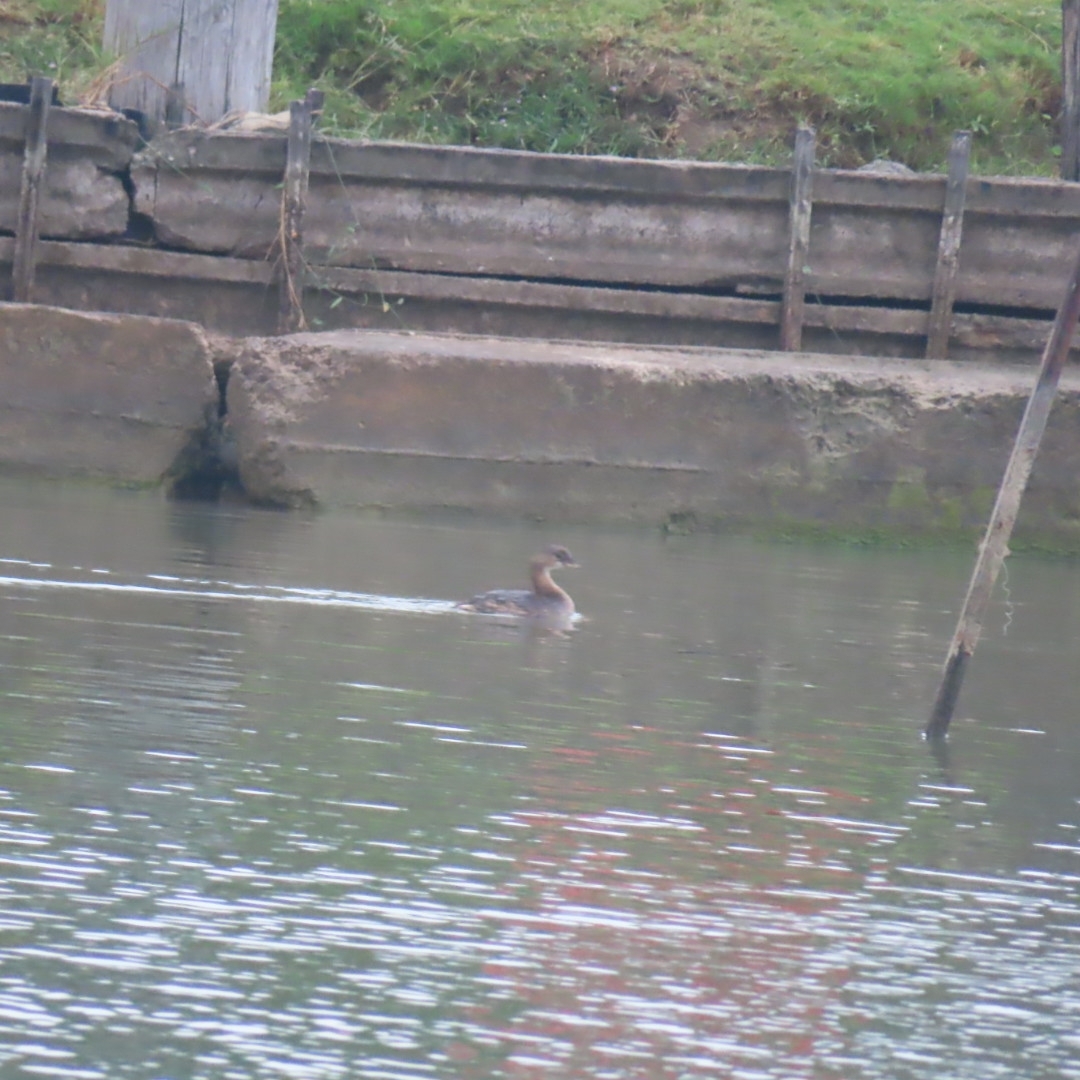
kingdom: Animalia
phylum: Chordata
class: Aves
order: Podicipediformes
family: Podicipedidae
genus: Podilymbus
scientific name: Podilymbus podiceps
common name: Pied-billed grebe
